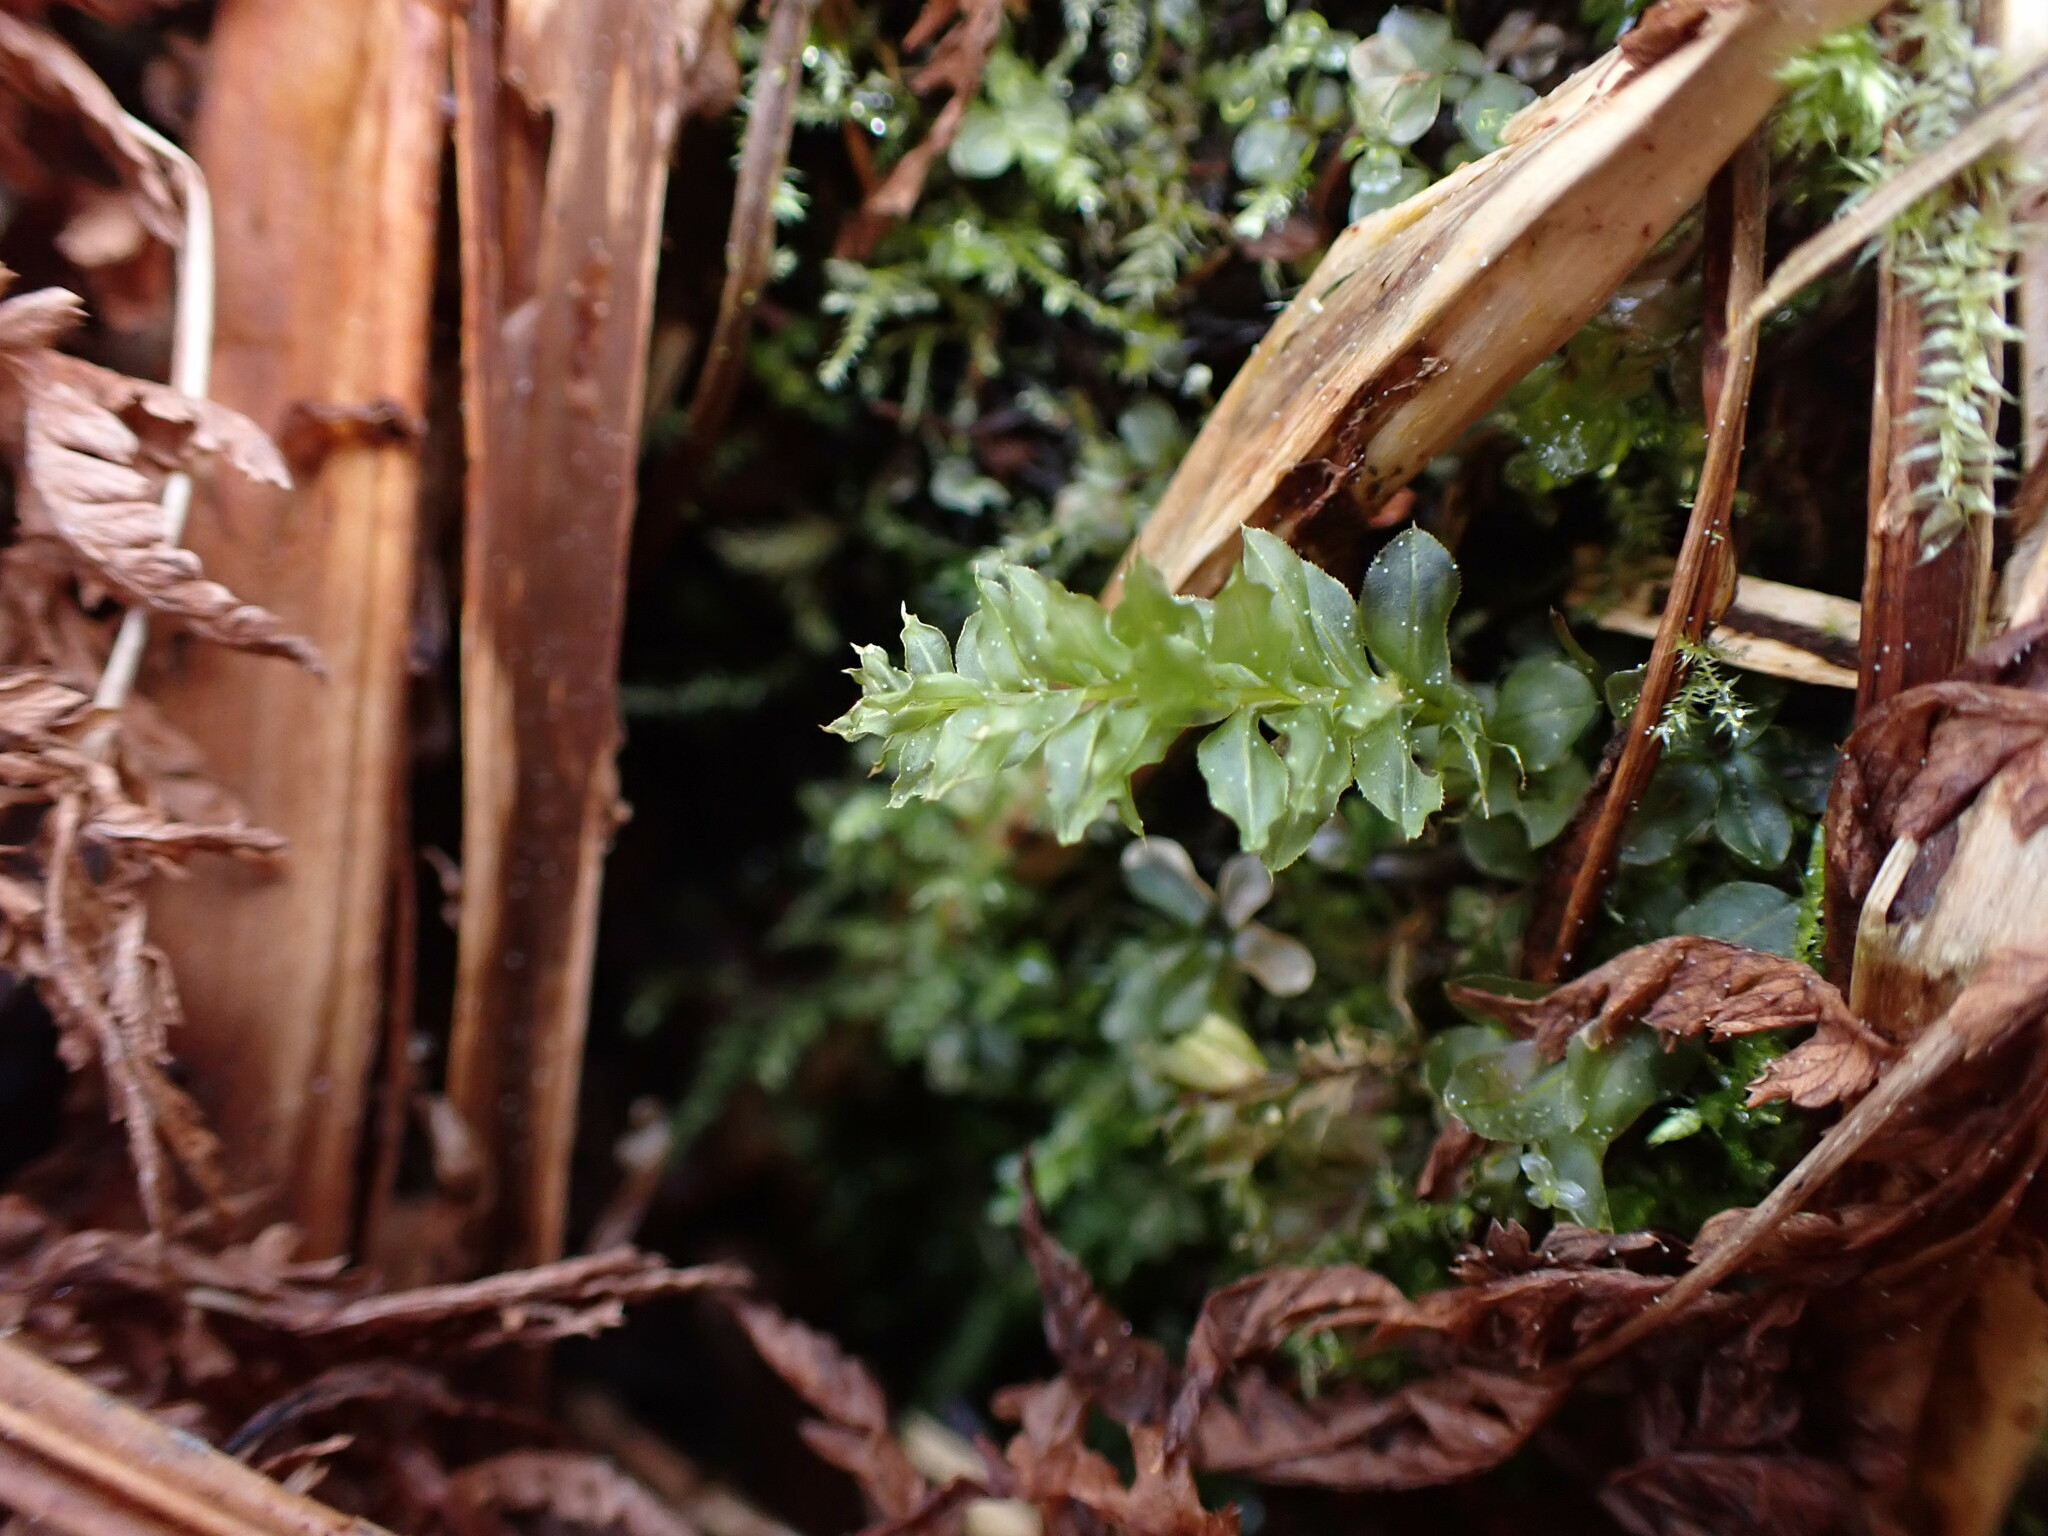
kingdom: Plantae
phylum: Bryophyta
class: Bryopsida
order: Bryales
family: Mniaceae
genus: Plagiomnium
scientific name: Plagiomnium insigne
